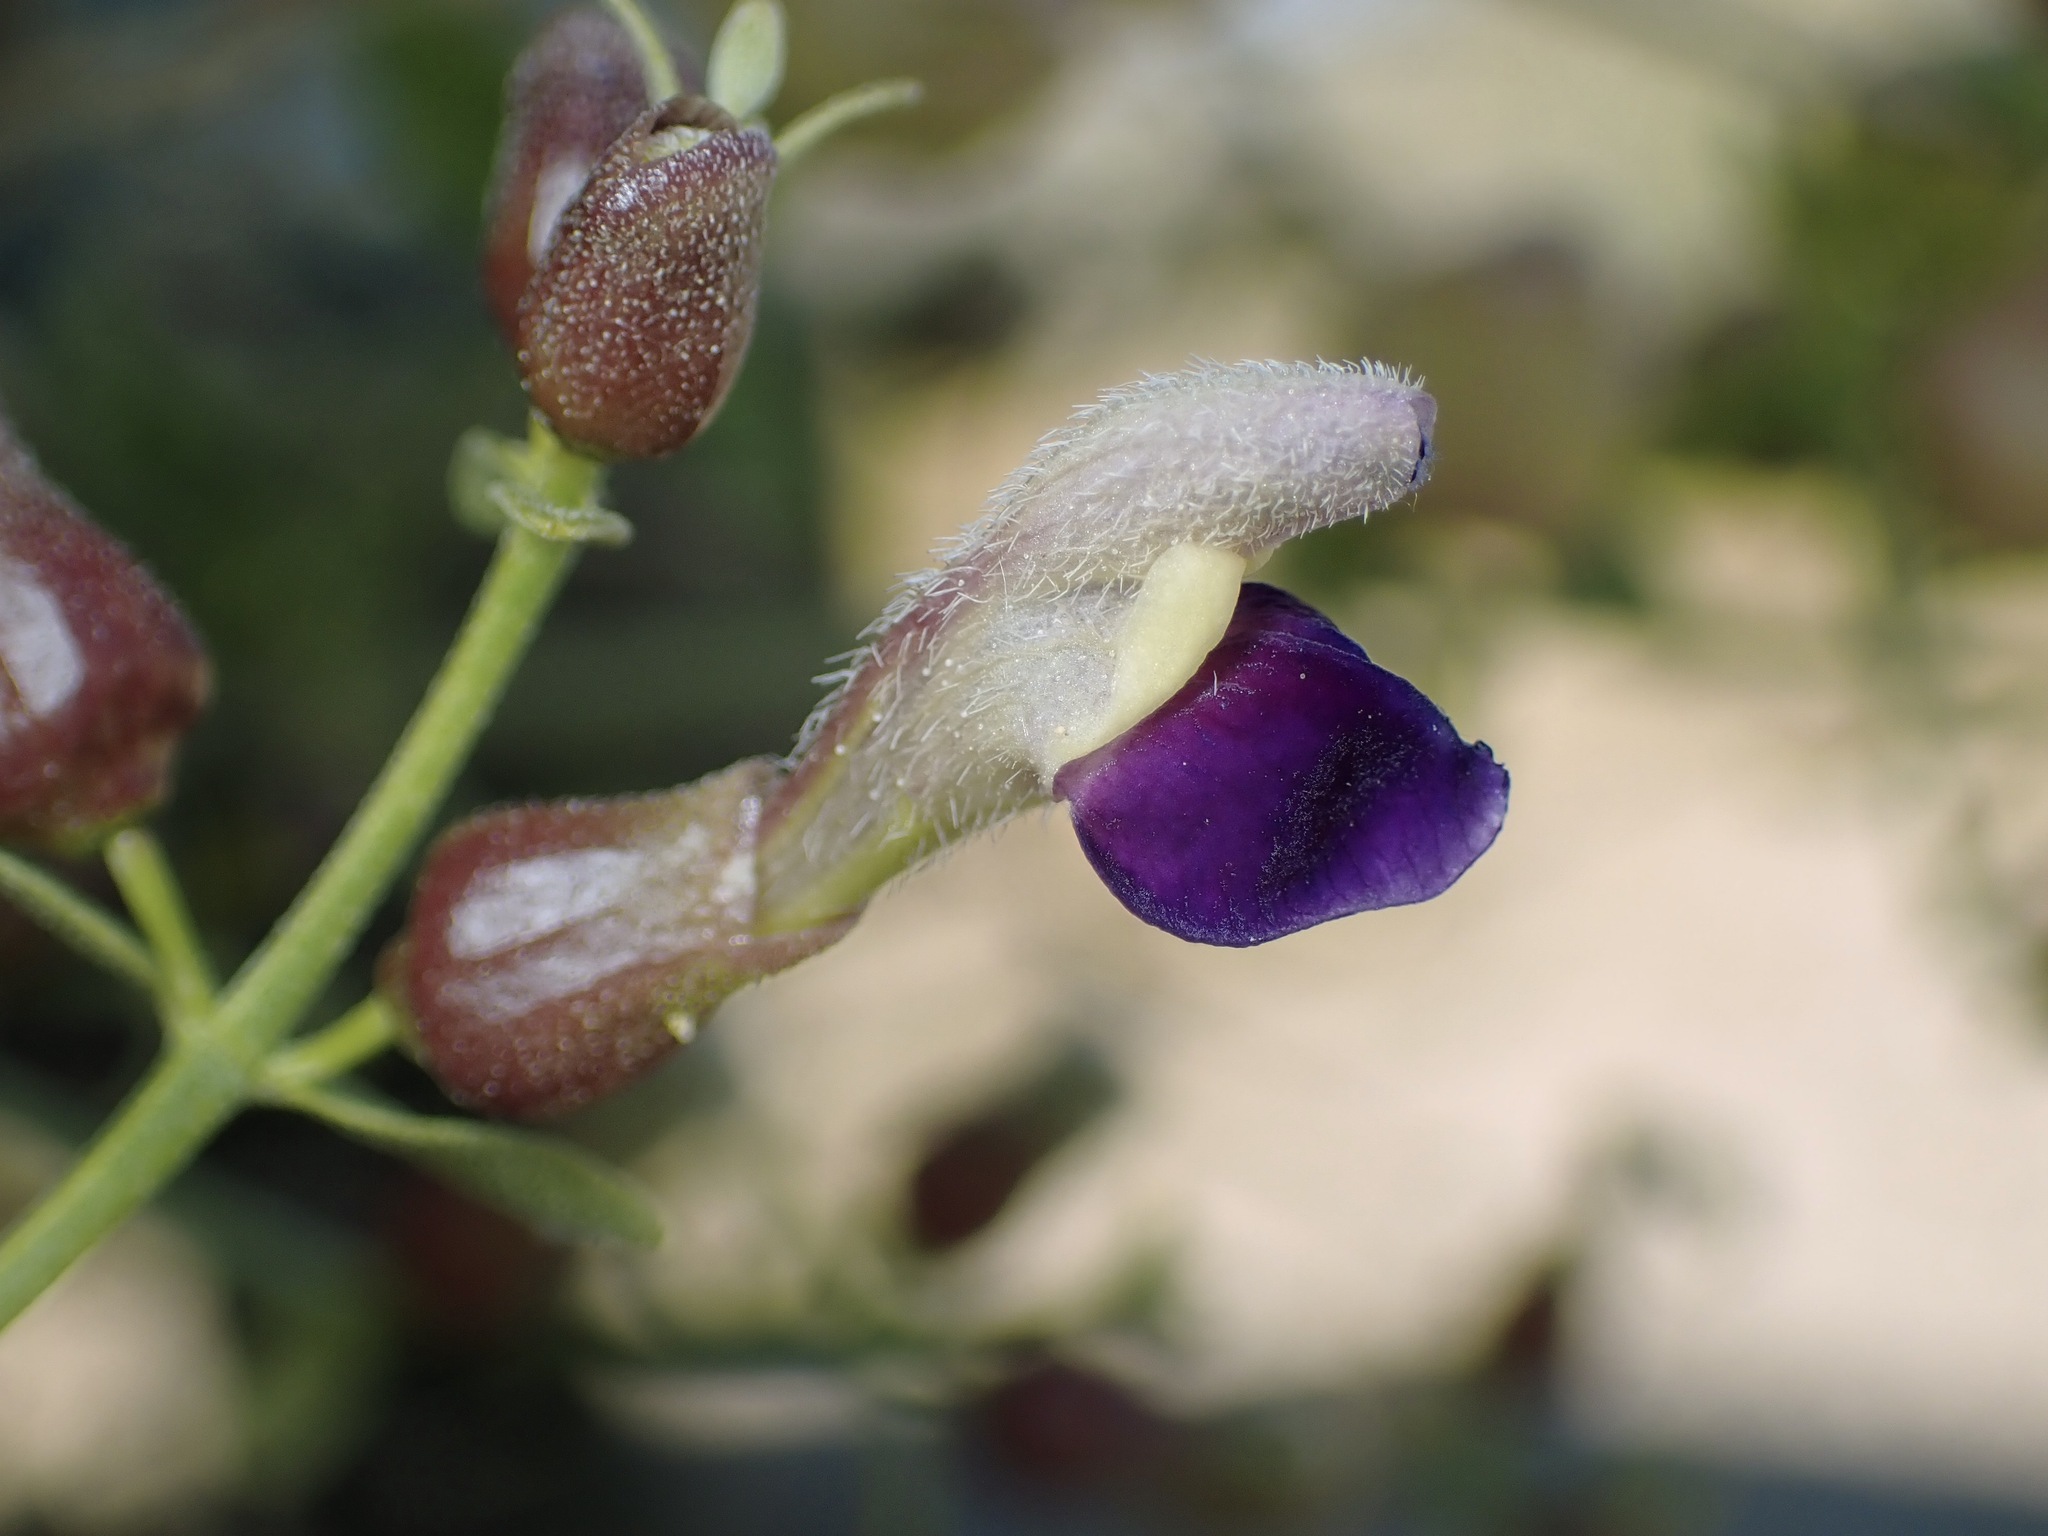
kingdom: Plantae
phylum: Tracheophyta
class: Magnoliopsida
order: Lamiales
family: Lamiaceae
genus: Scutellaria
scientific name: Scutellaria mexicana
